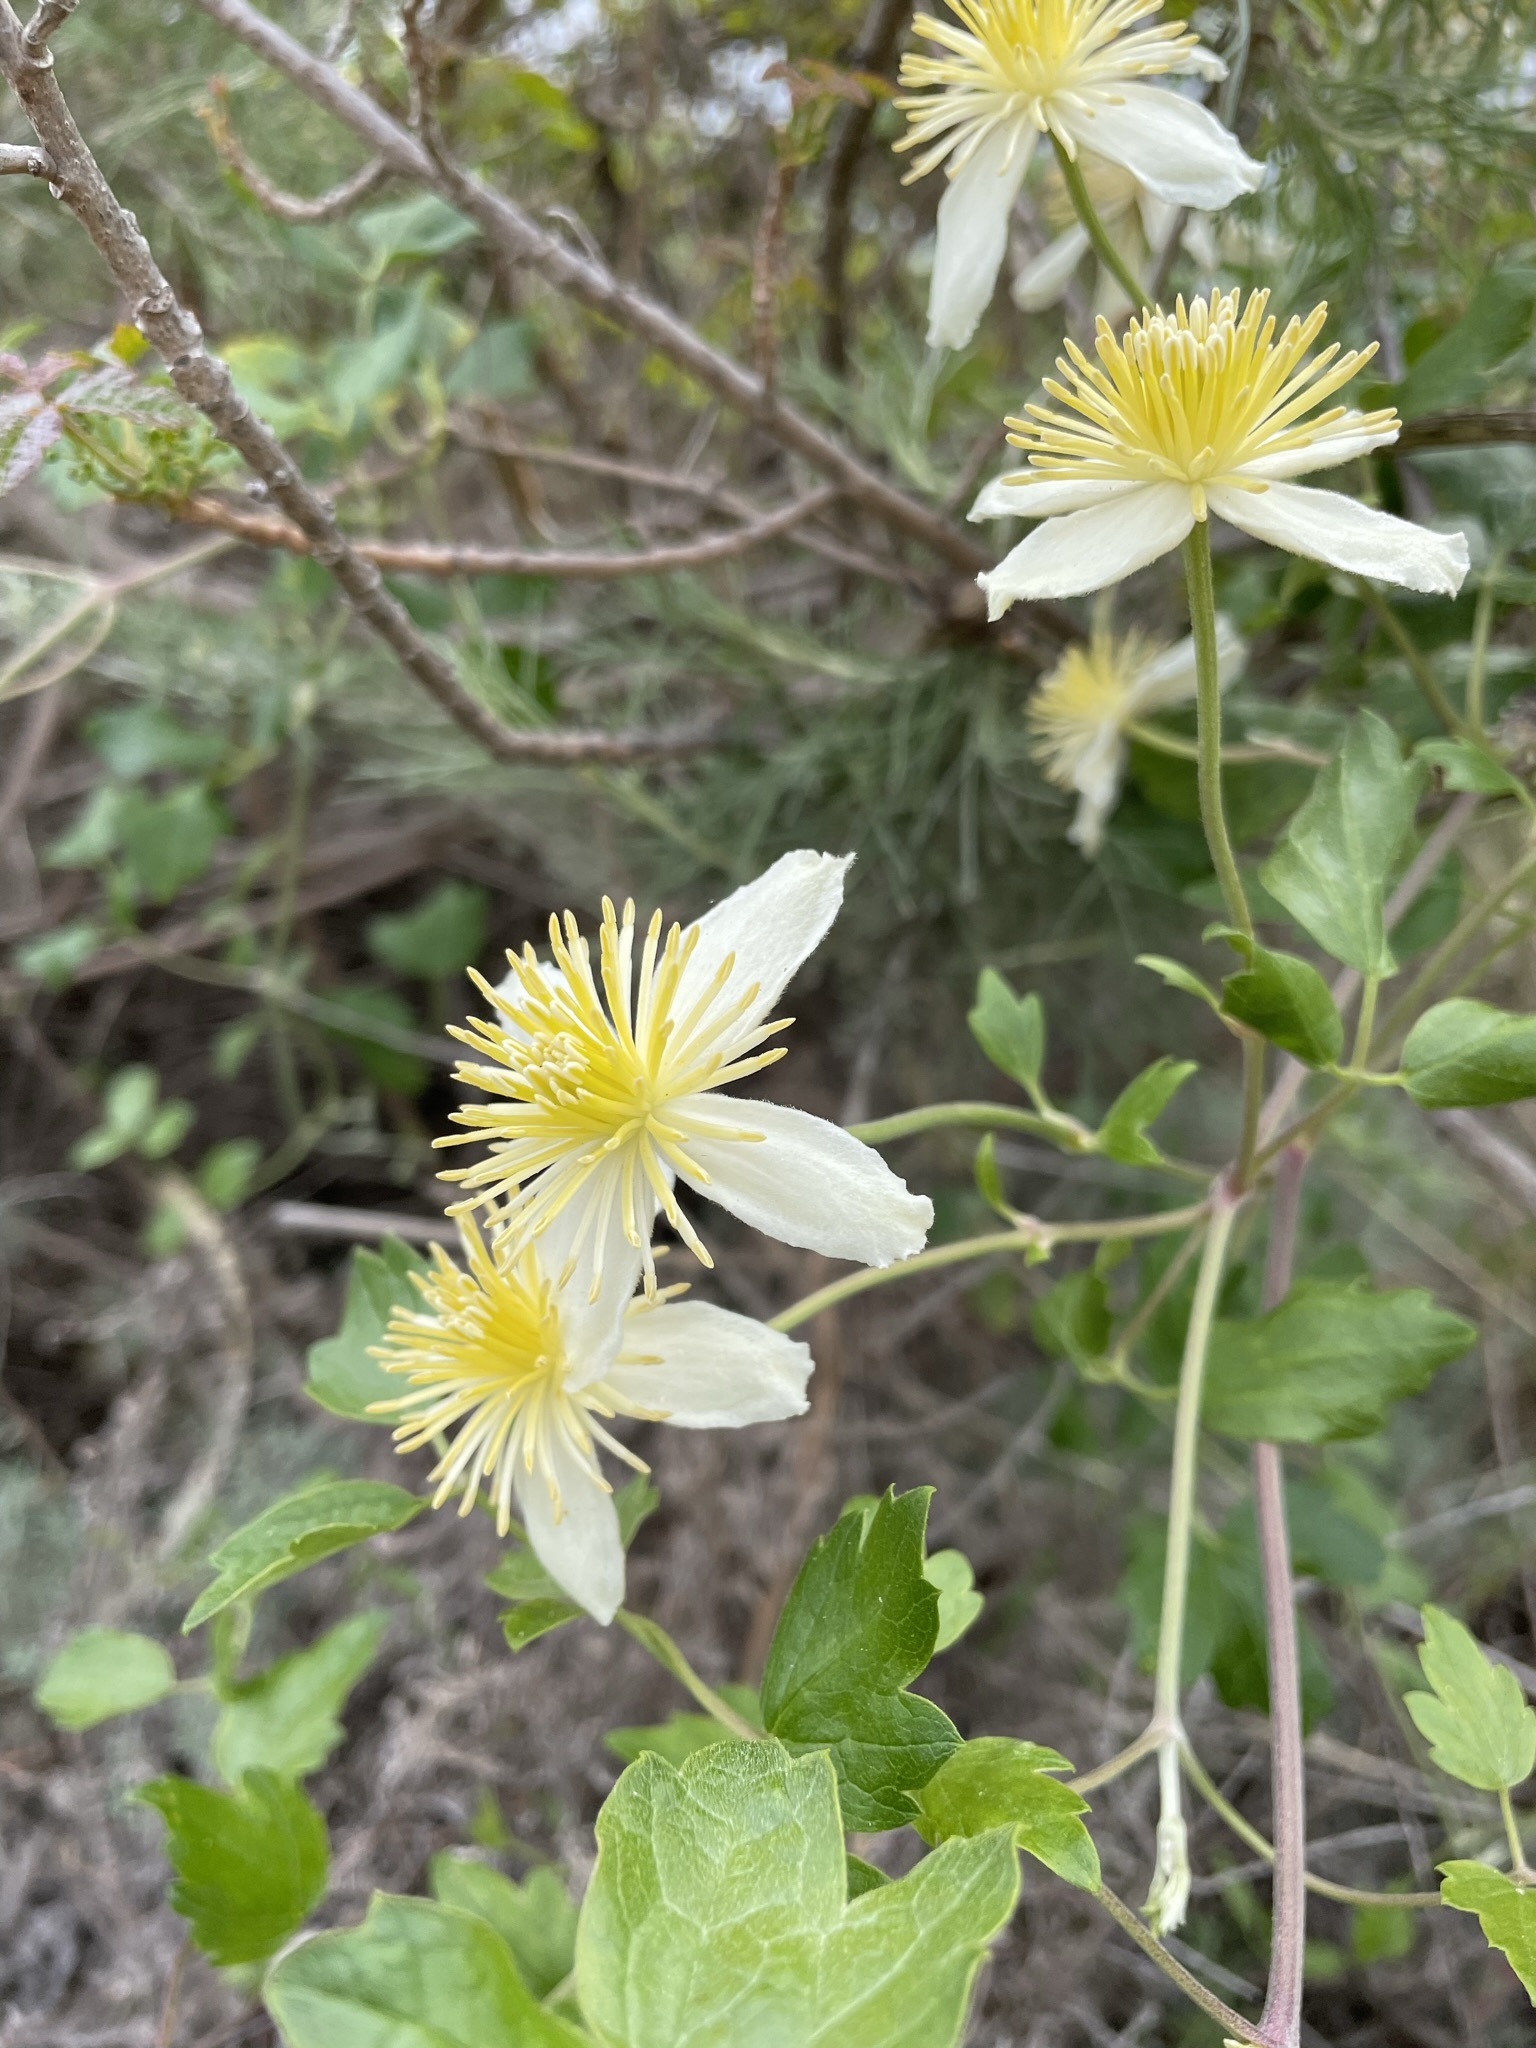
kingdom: Plantae
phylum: Tracheophyta
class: Magnoliopsida
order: Ranunculales
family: Ranunculaceae
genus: Clematis
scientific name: Clematis lasiantha
